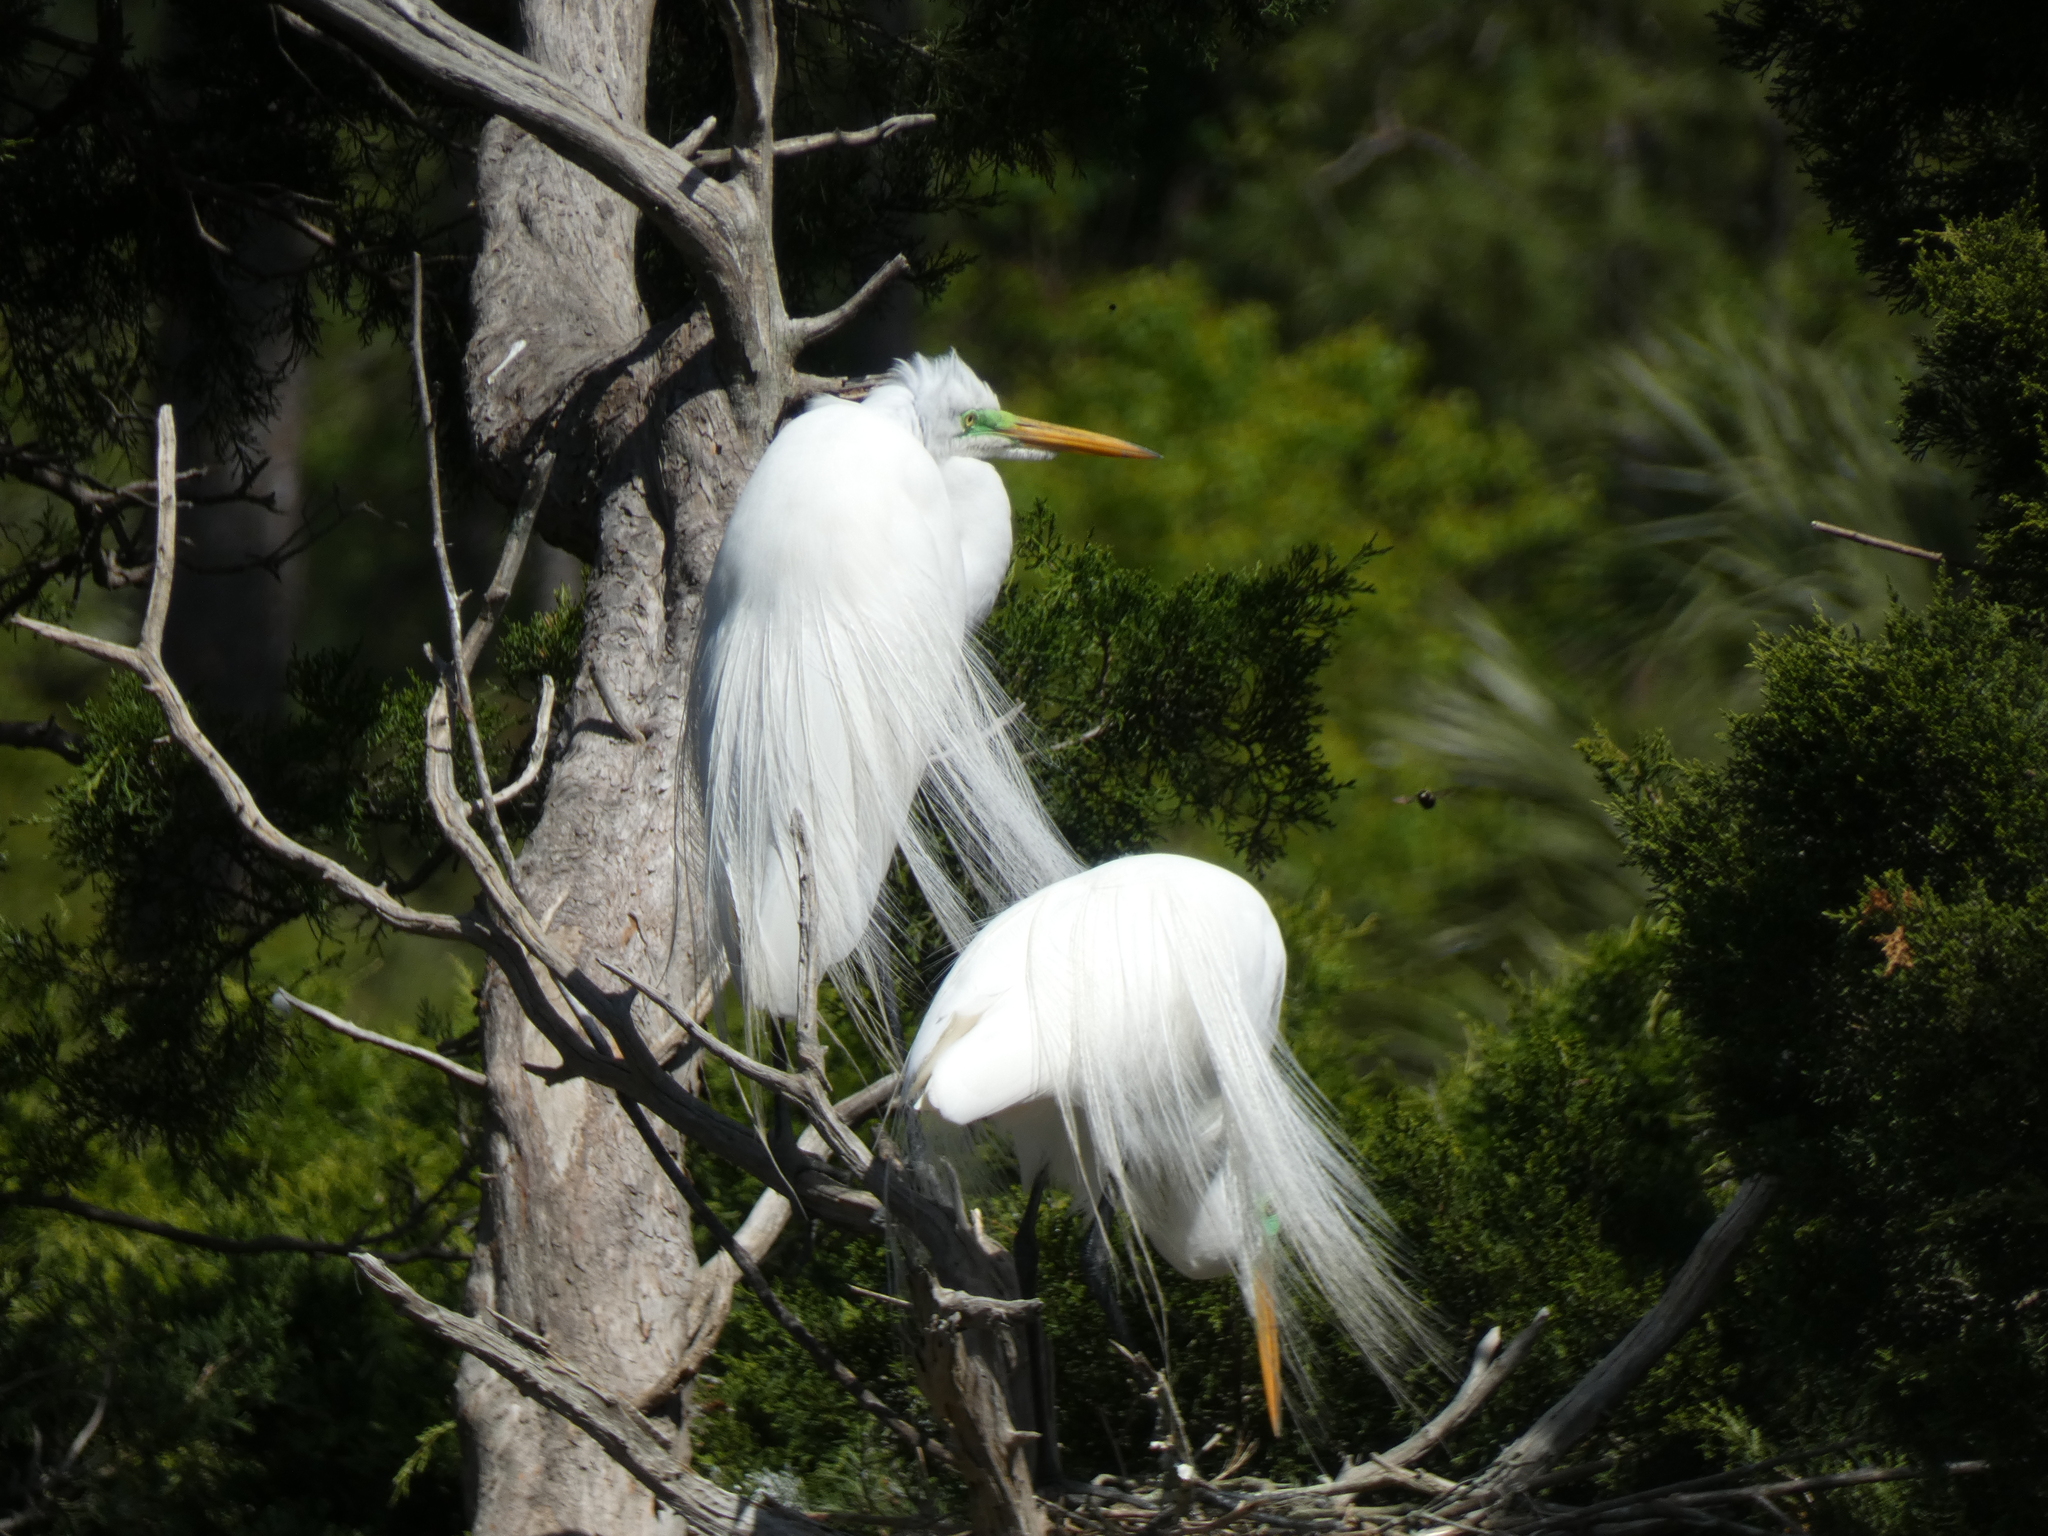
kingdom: Animalia
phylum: Chordata
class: Aves
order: Pelecaniformes
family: Ardeidae
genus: Ardea
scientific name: Ardea alba
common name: Great egret
